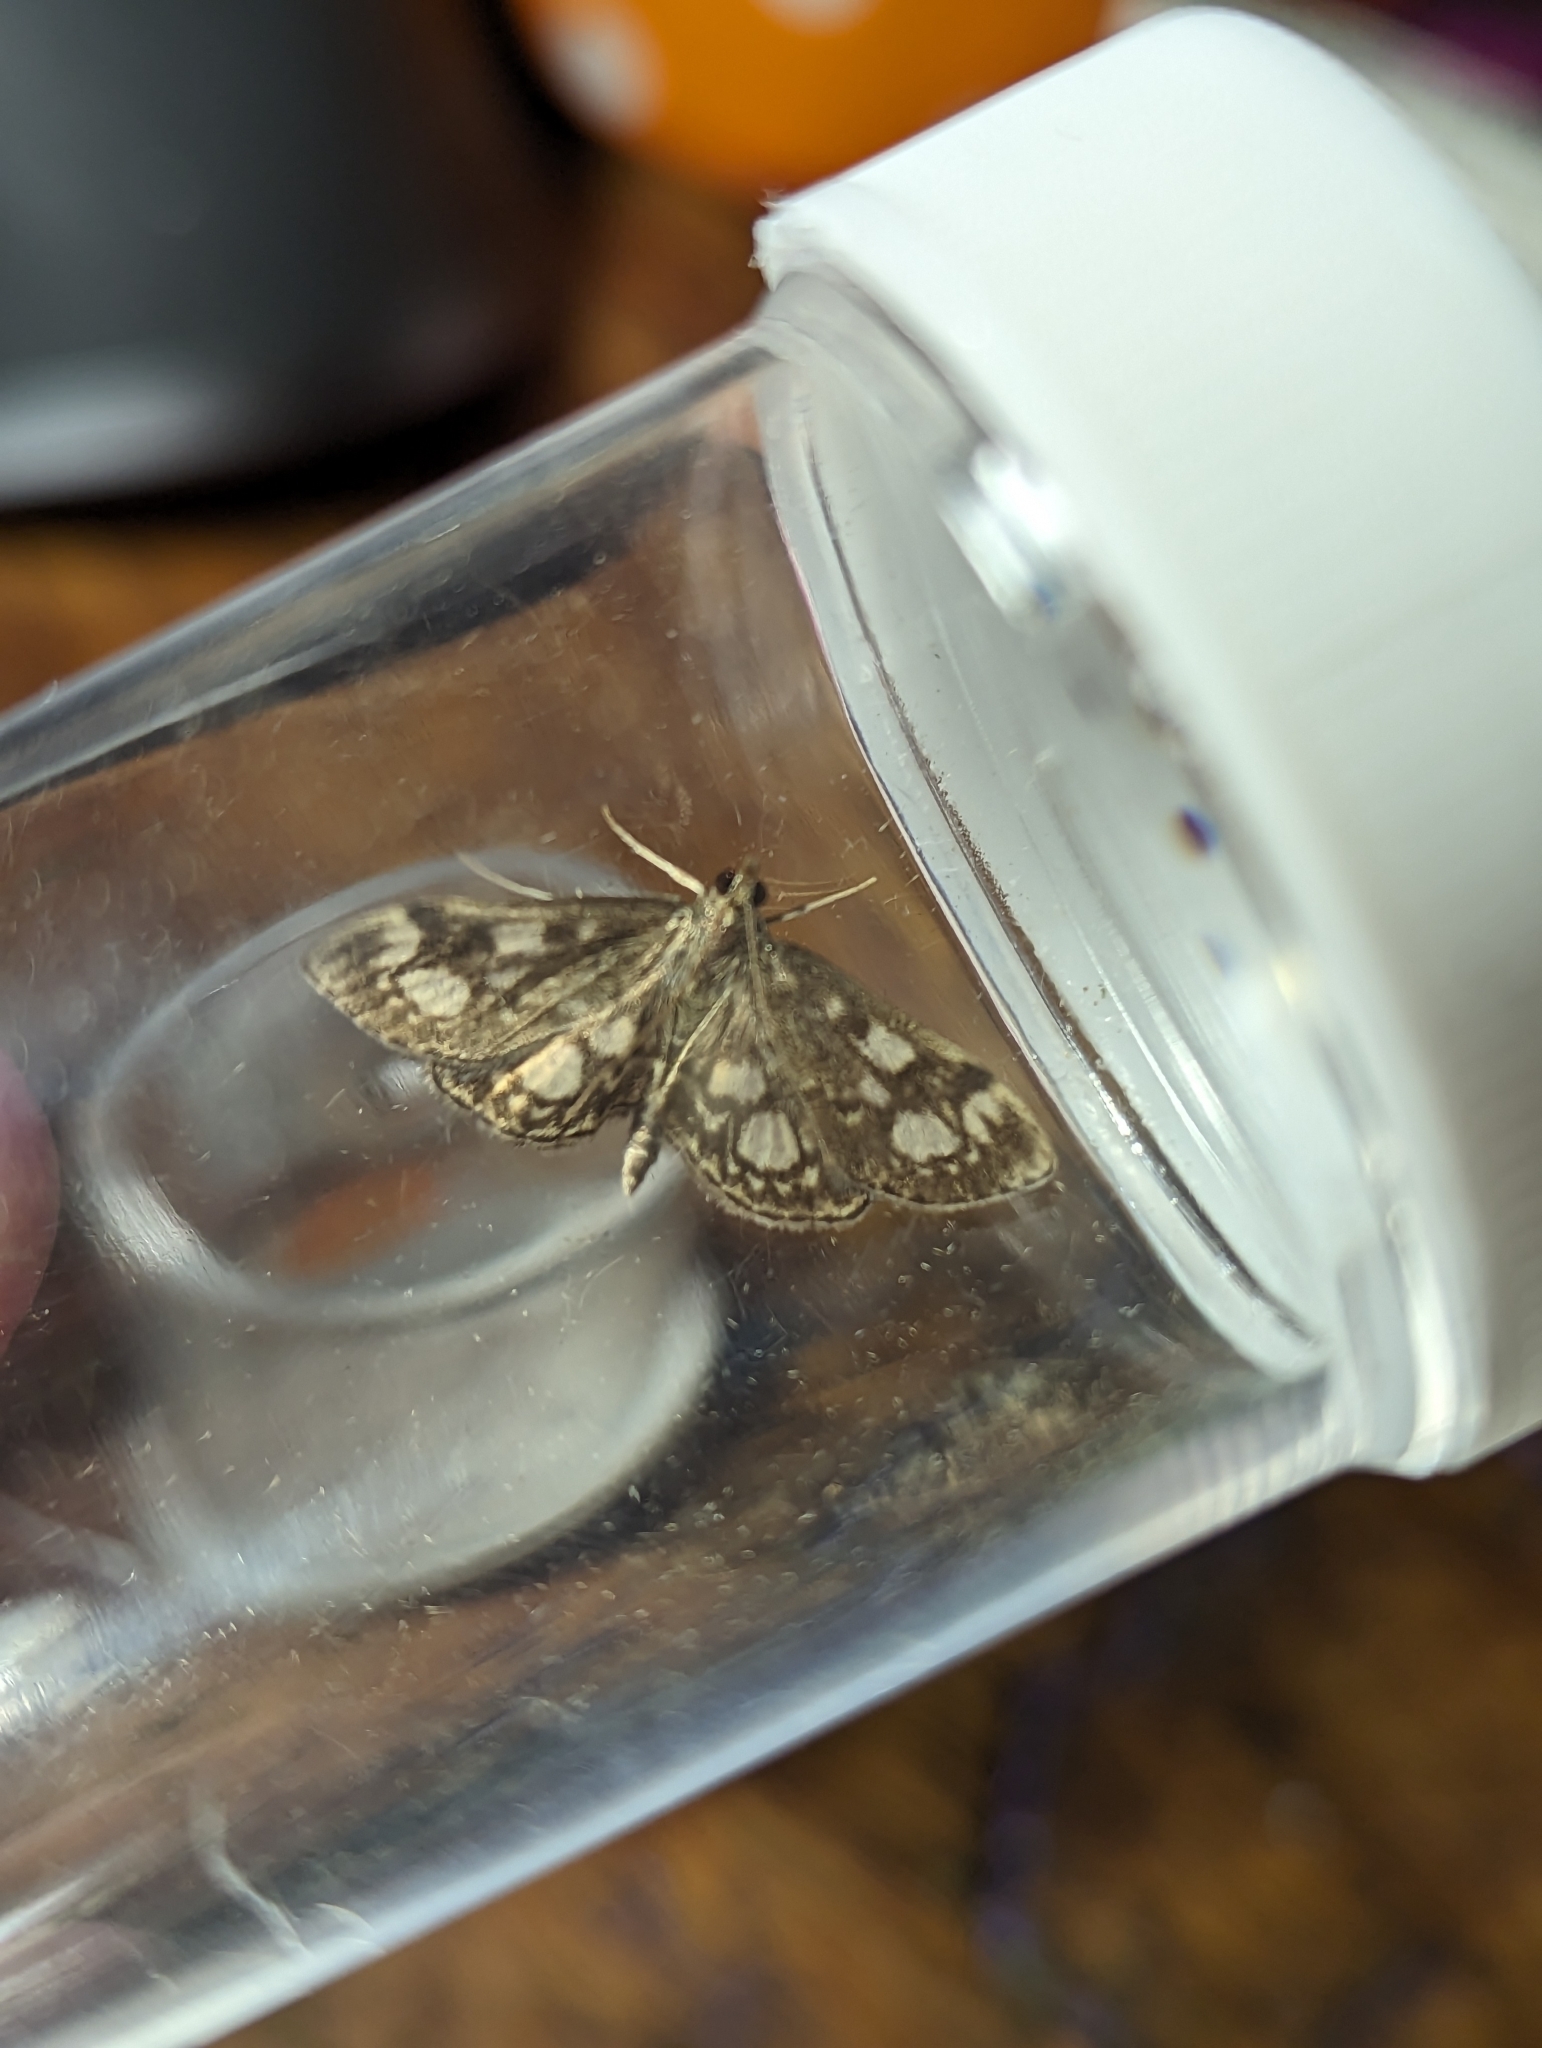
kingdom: Animalia
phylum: Arthropoda
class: Insecta
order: Lepidoptera
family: Crambidae
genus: Anania
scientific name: Anania coronata
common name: Elder pearl
